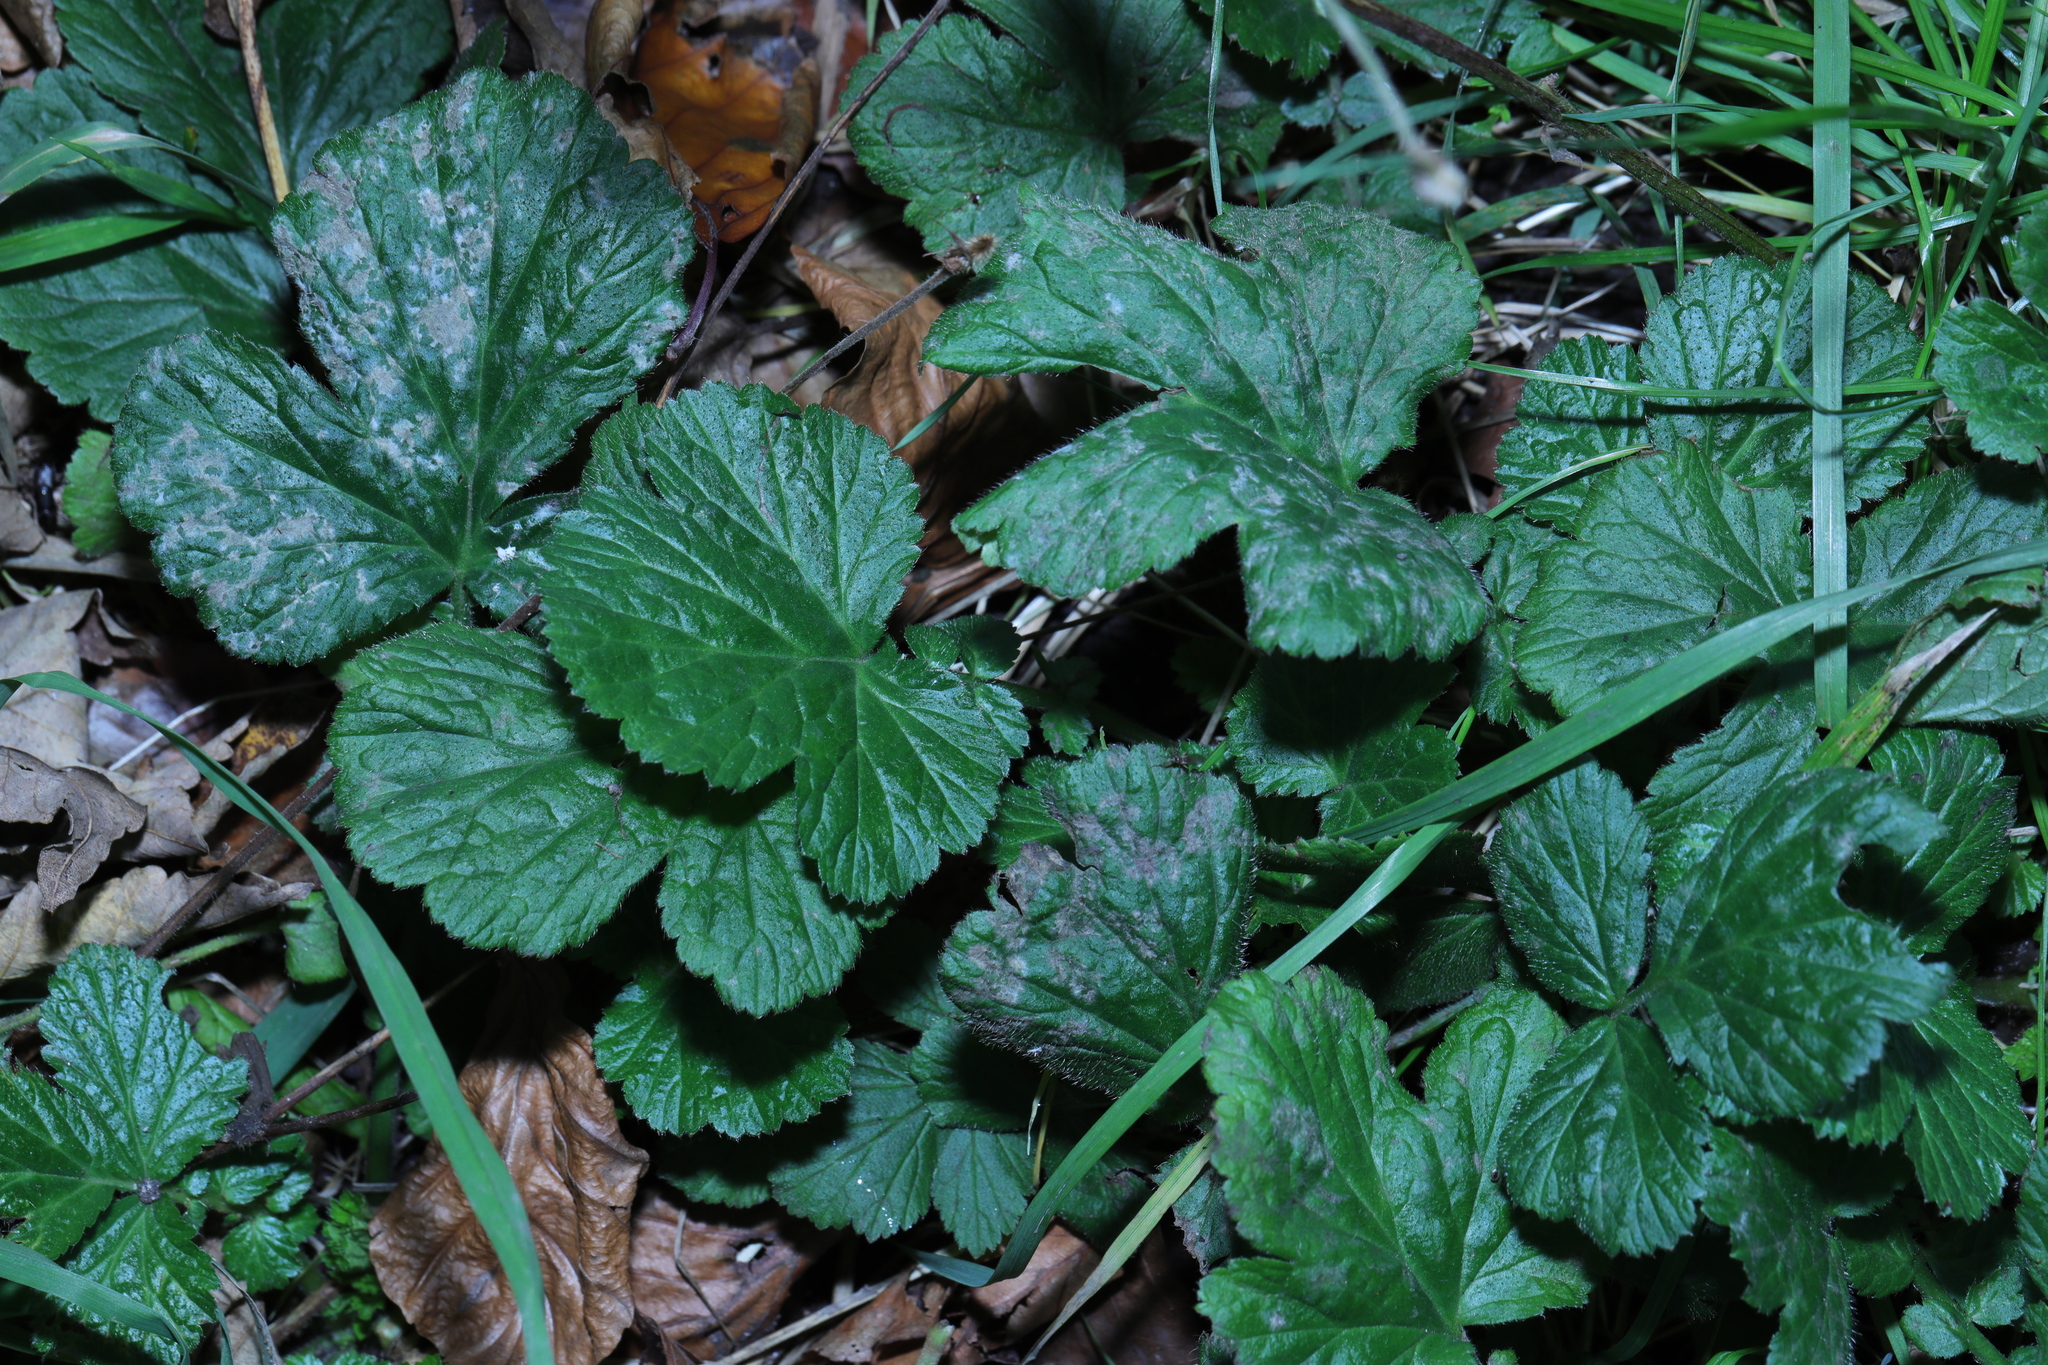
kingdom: Plantae
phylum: Tracheophyta
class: Magnoliopsida
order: Rosales
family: Rosaceae
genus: Geum
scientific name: Geum urbanum
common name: Wood avens
